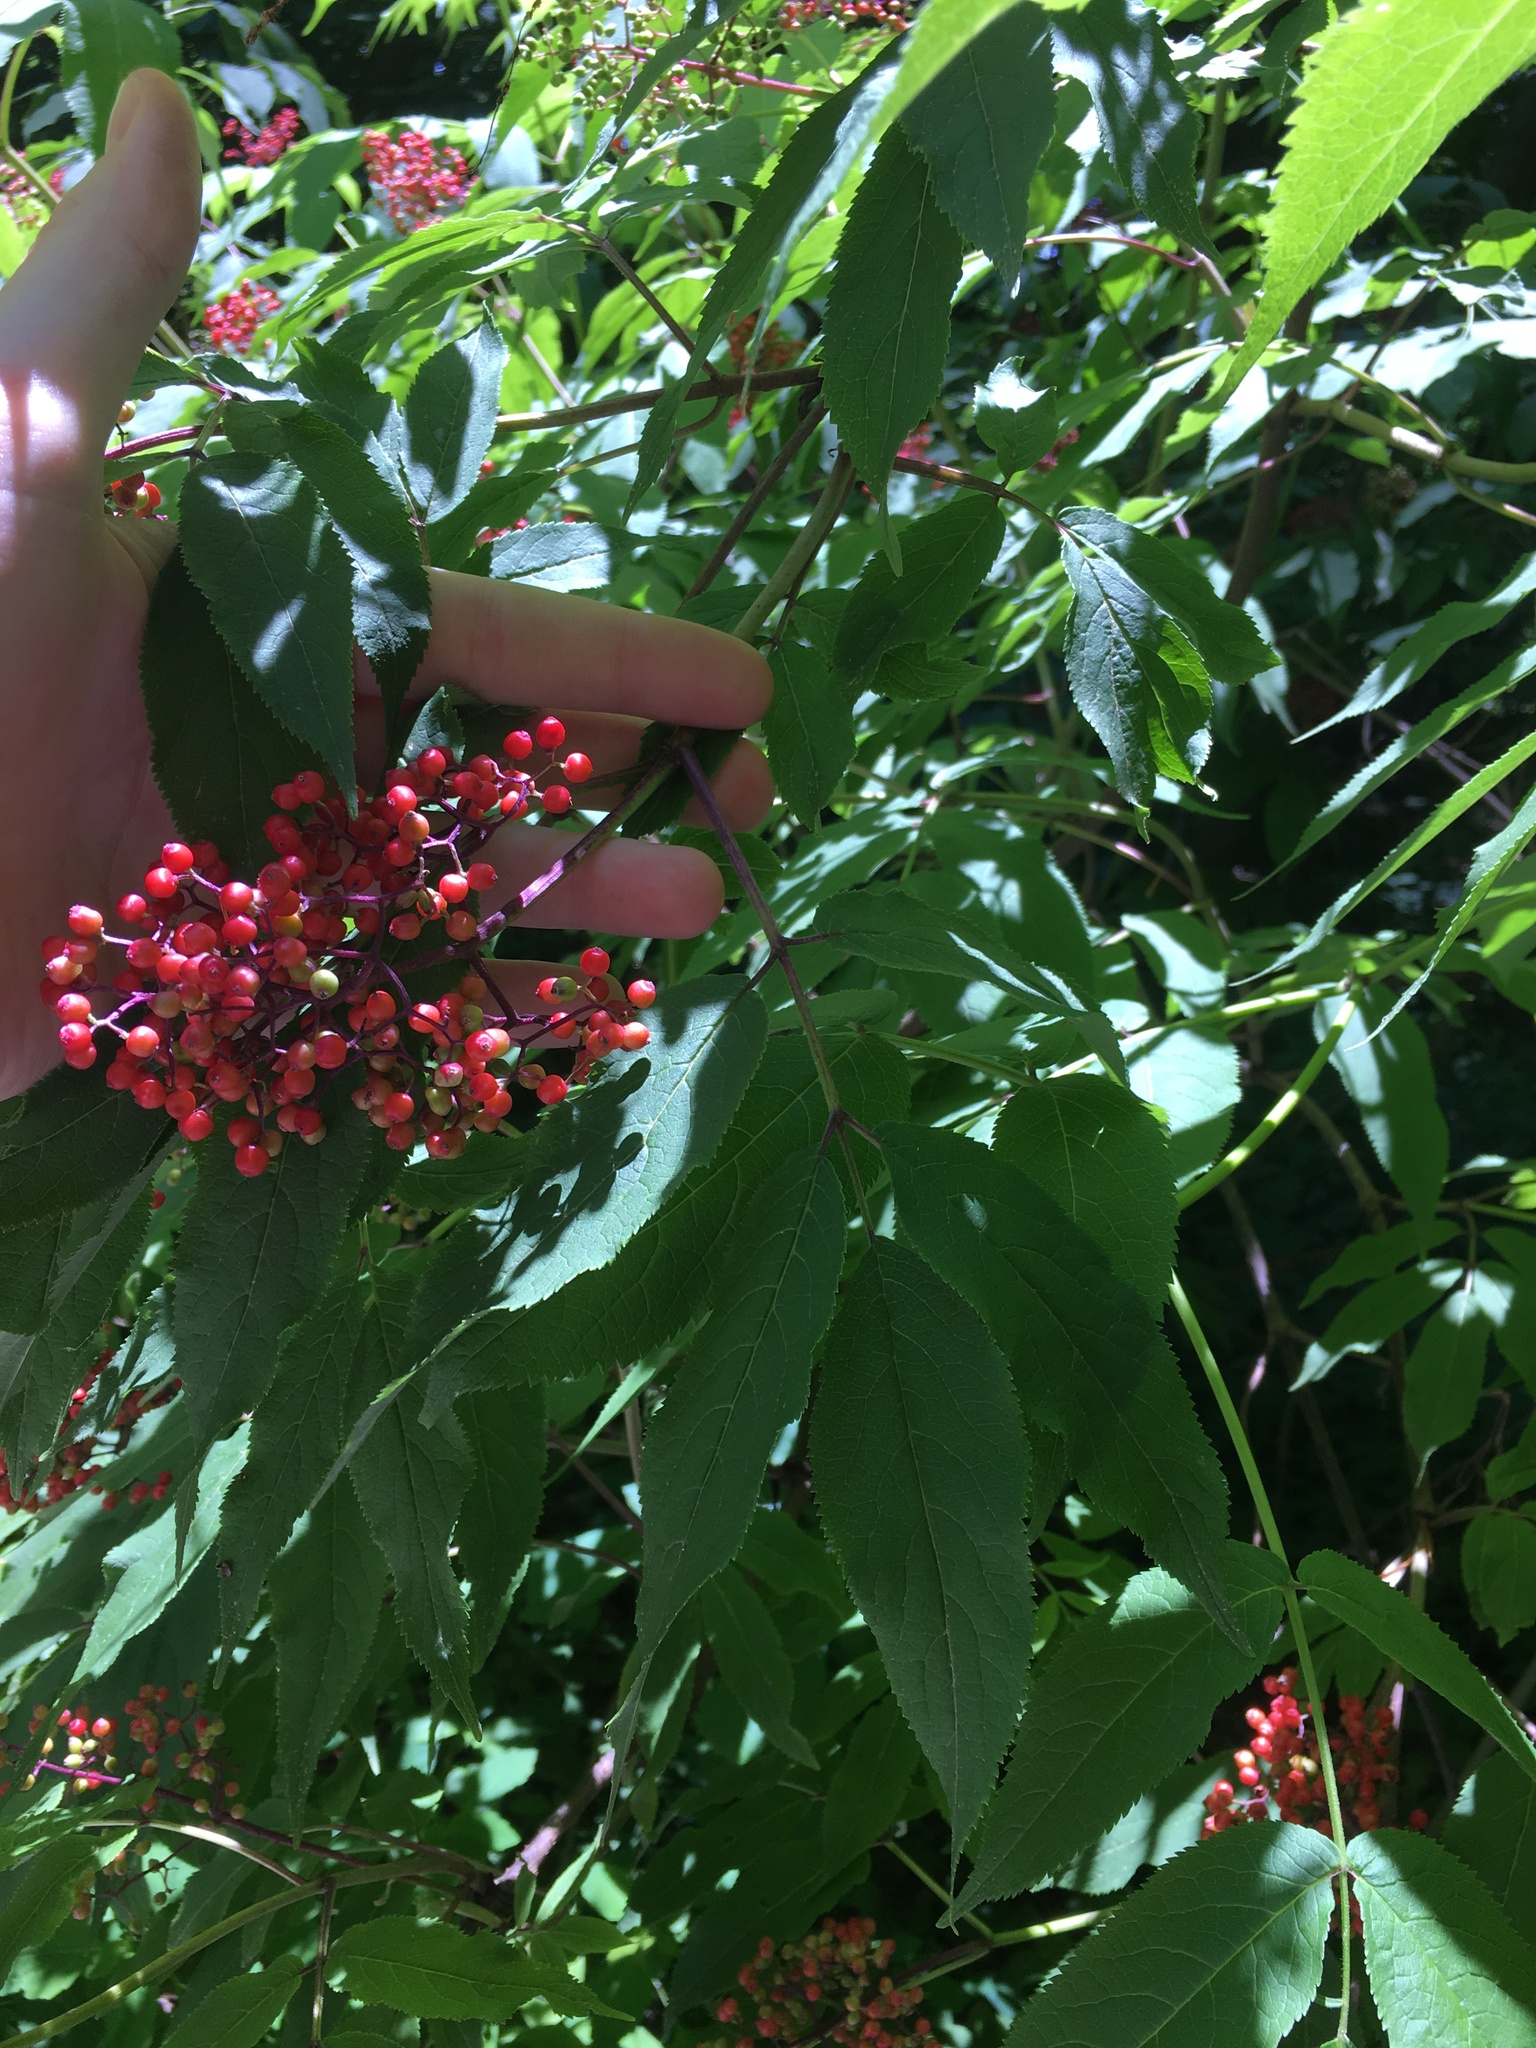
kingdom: Plantae
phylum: Tracheophyta
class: Magnoliopsida
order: Dipsacales
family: Viburnaceae
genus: Sambucus
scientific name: Sambucus racemosa
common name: Red-berried elder
